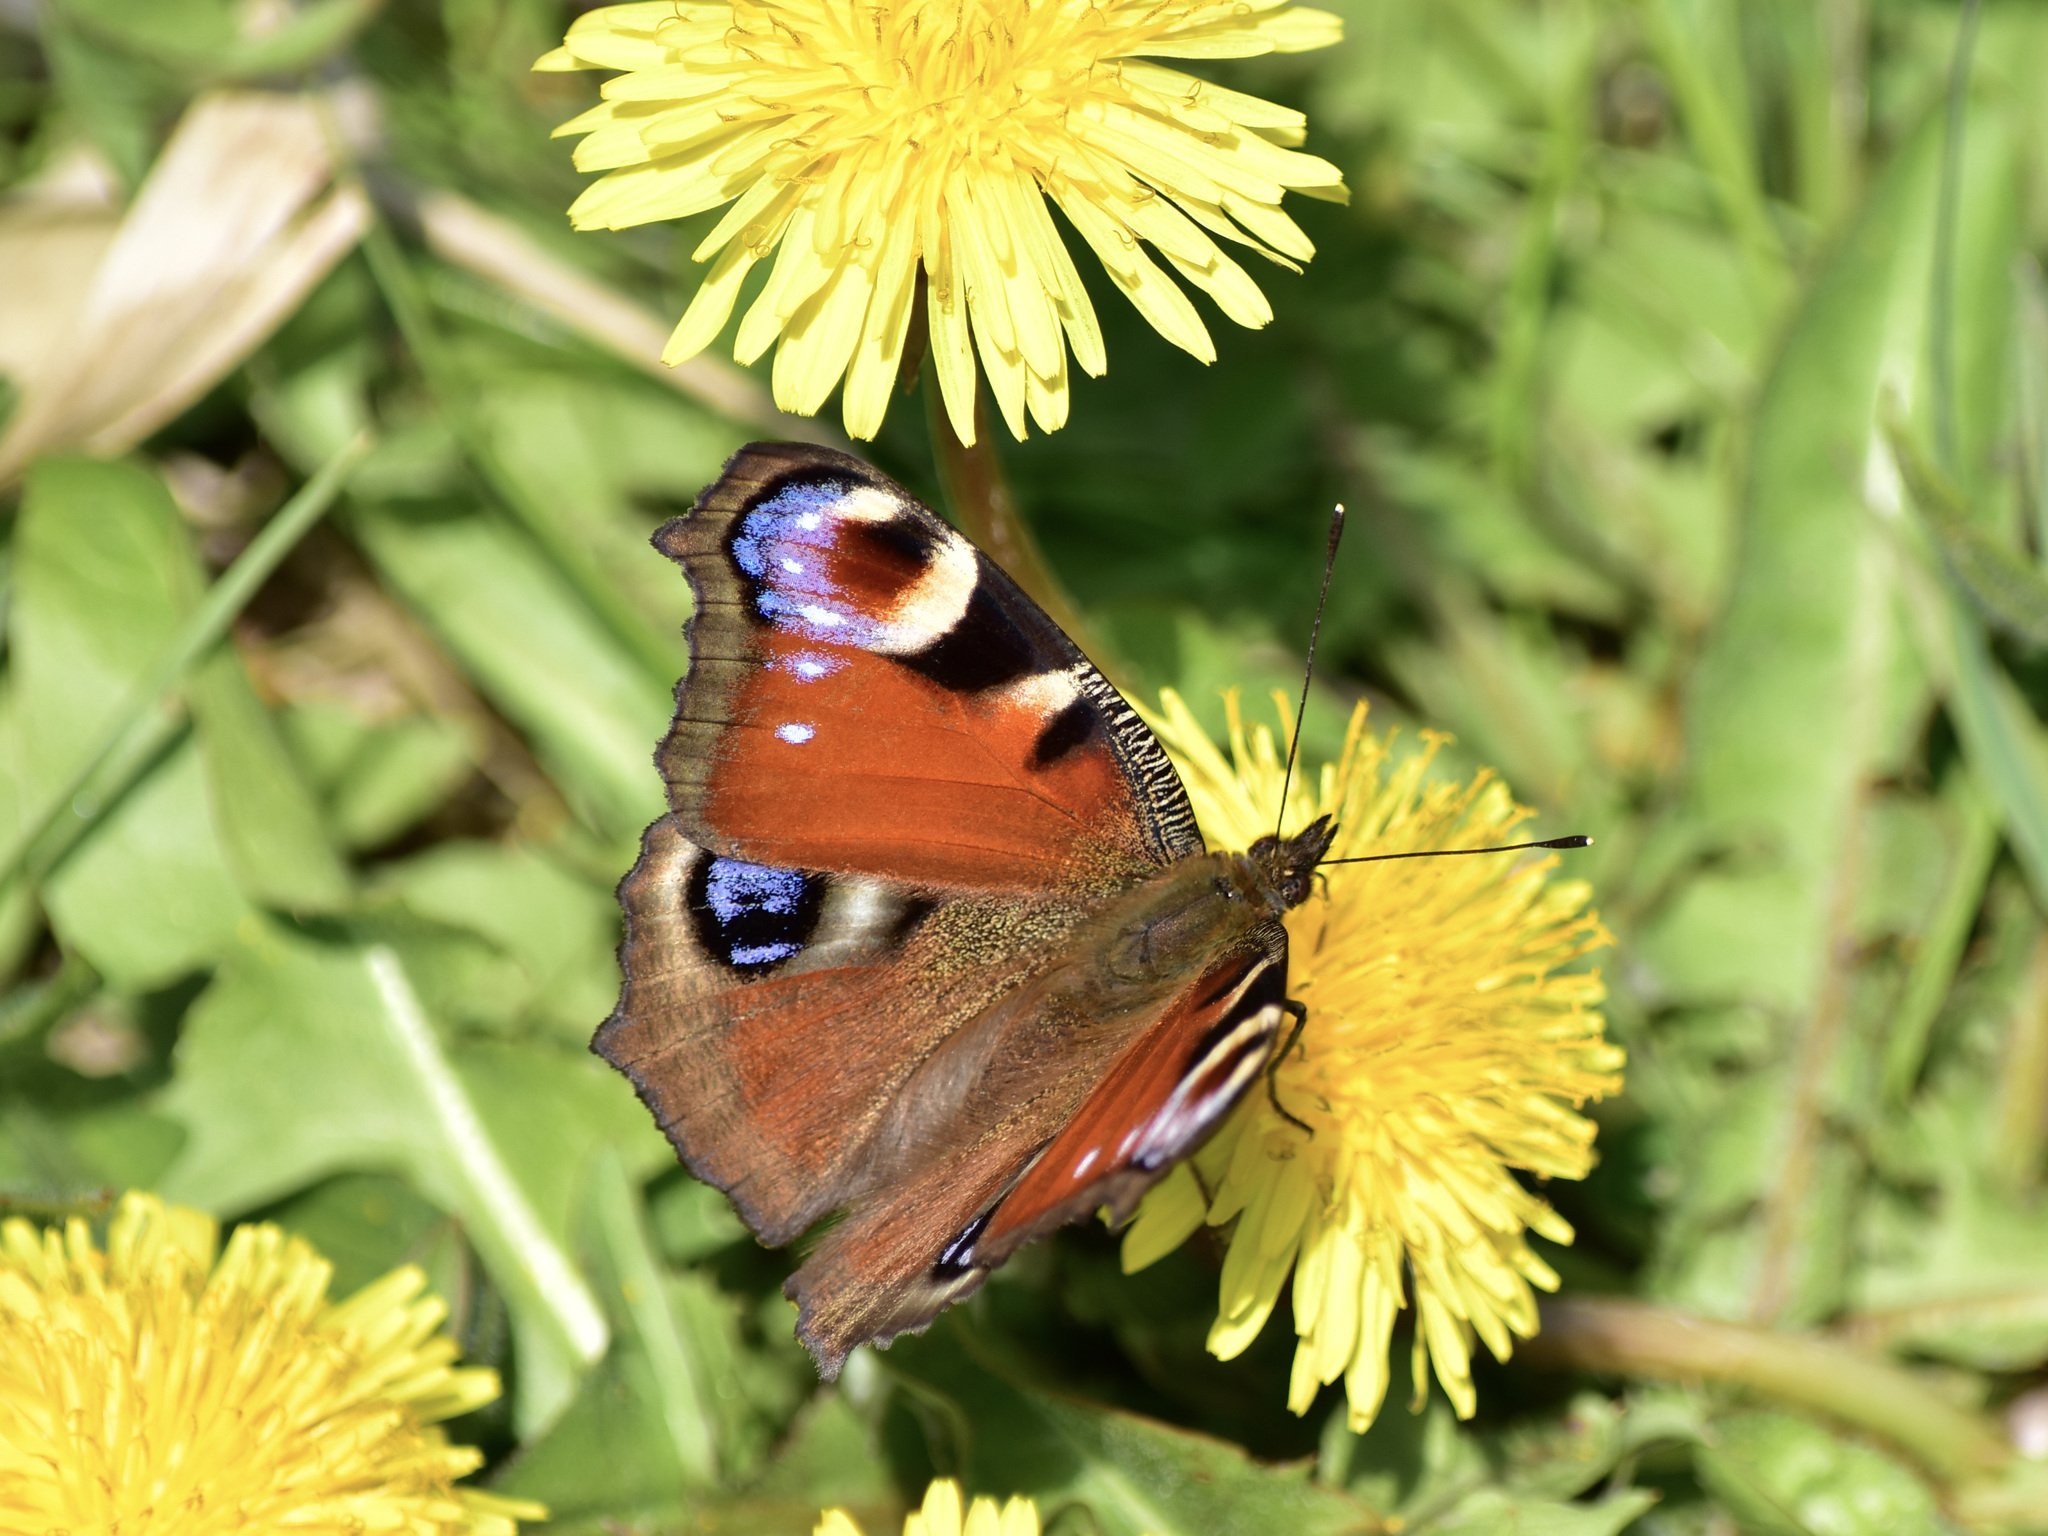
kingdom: Animalia
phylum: Arthropoda
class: Insecta
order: Lepidoptera
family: Nymphalidae
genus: Aglais
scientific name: Aglais io
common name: Peacock
